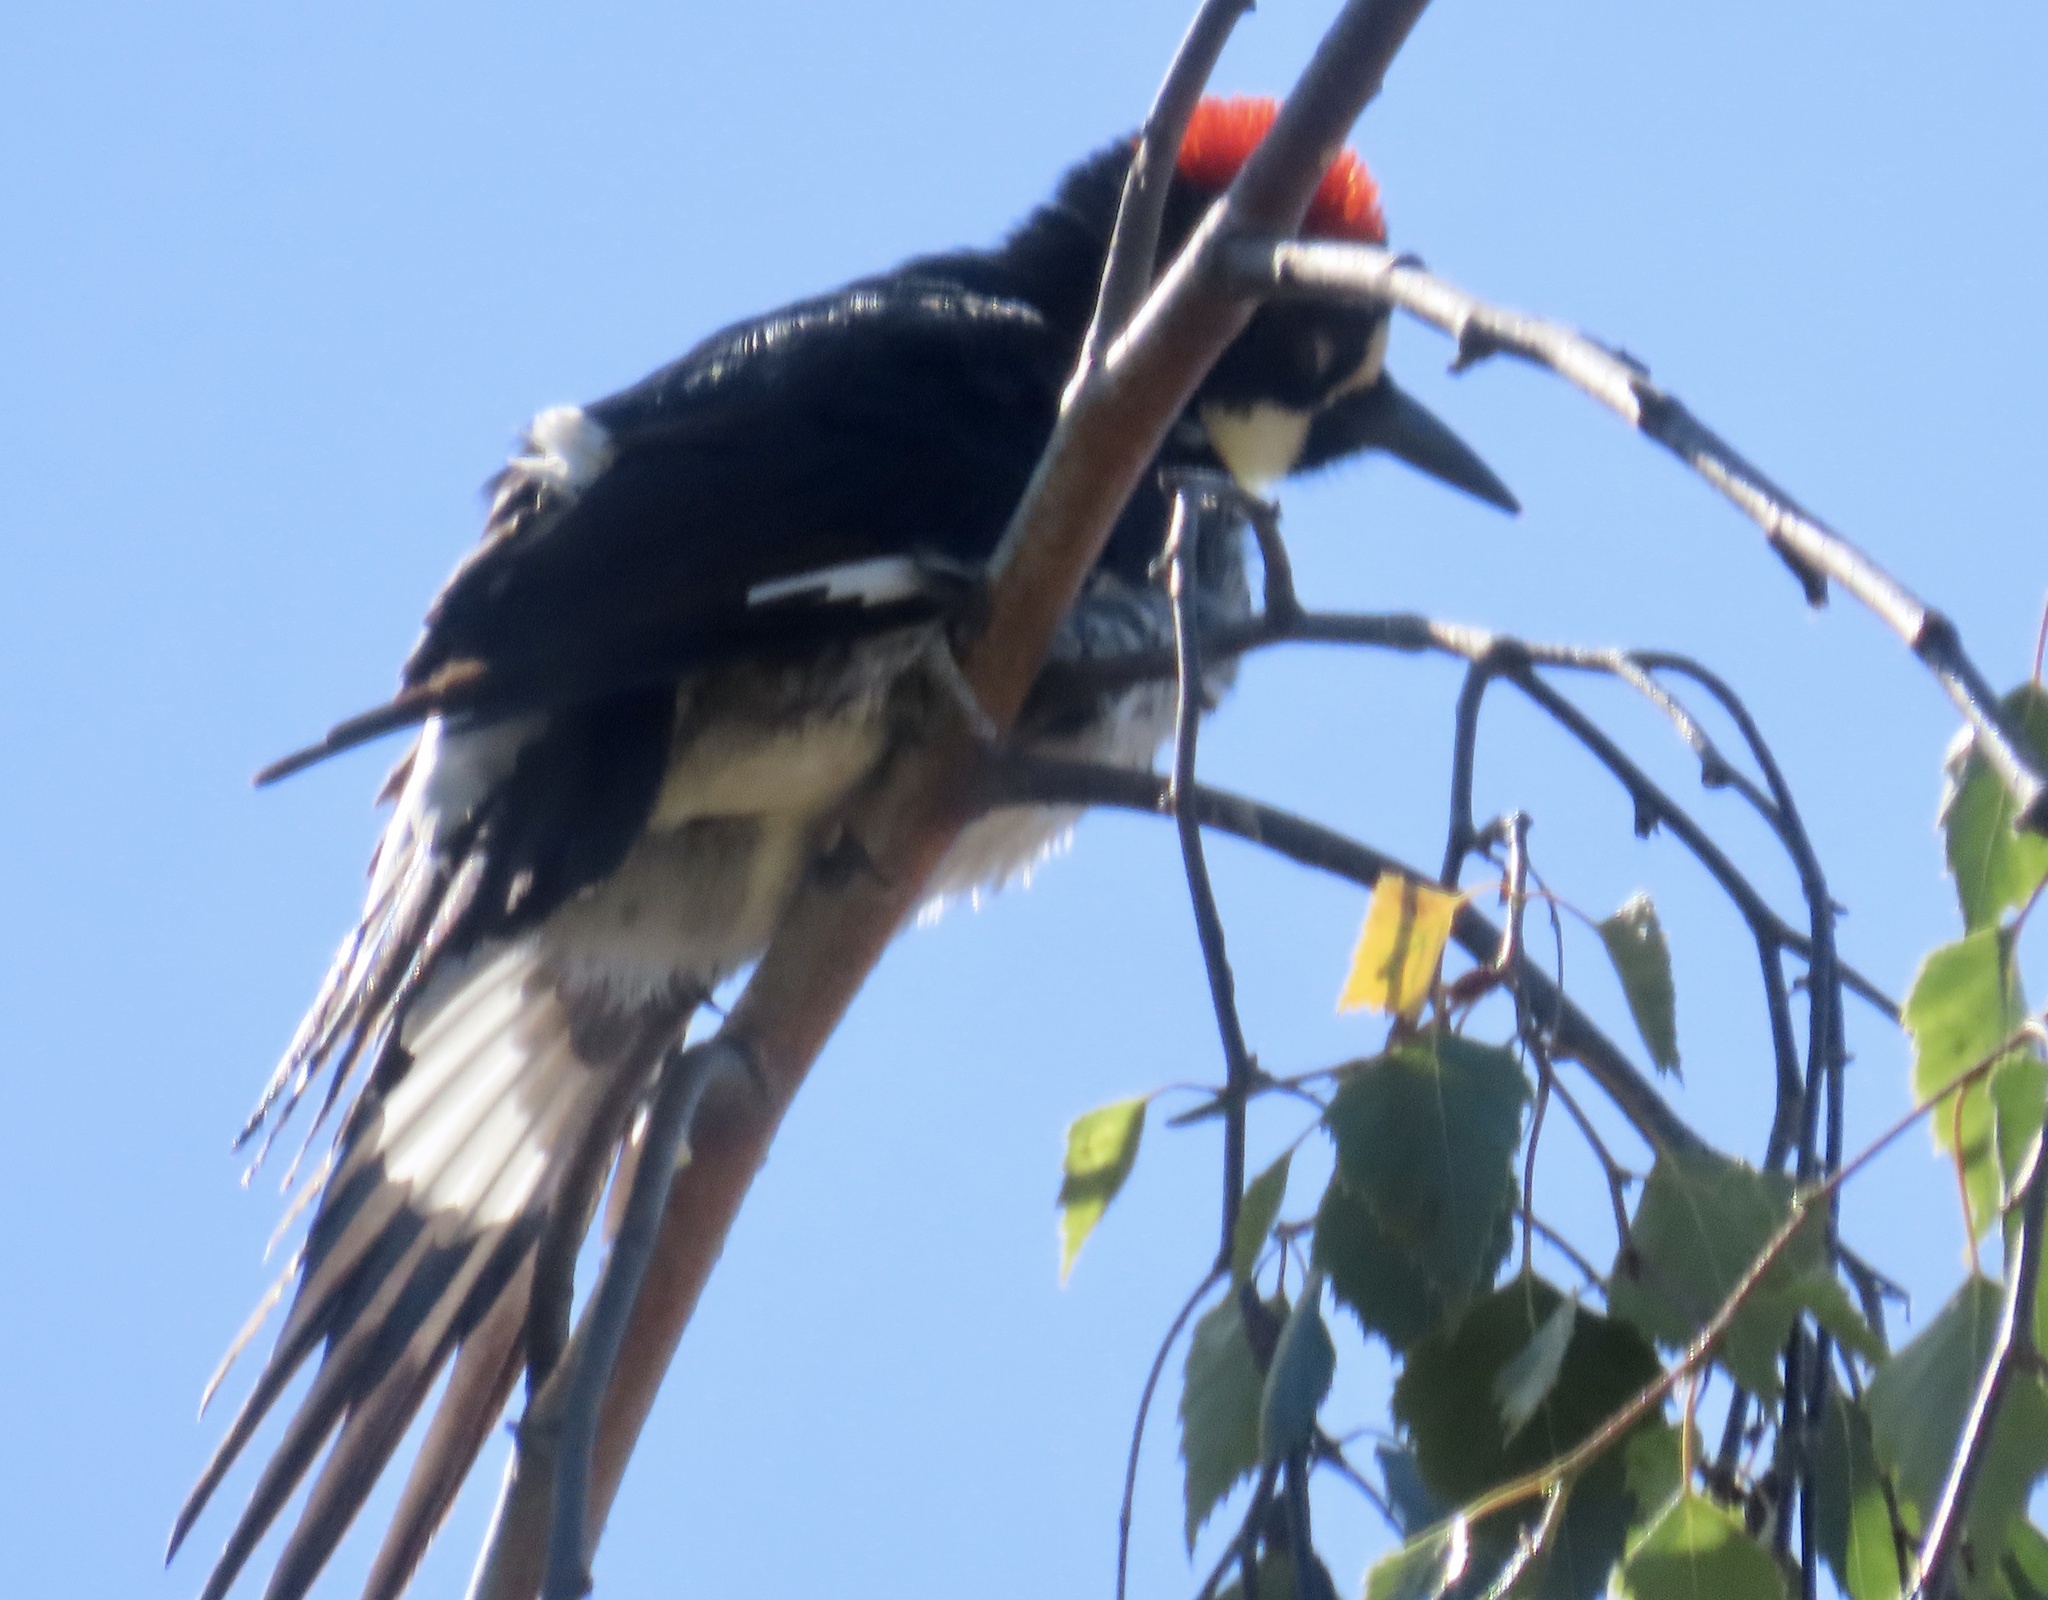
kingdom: Animalia
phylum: Chordata
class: Aves
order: Piciformes
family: Picidae
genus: Melanerpes
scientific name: Melanerpes formicivorus
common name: Acorn woodpecker
